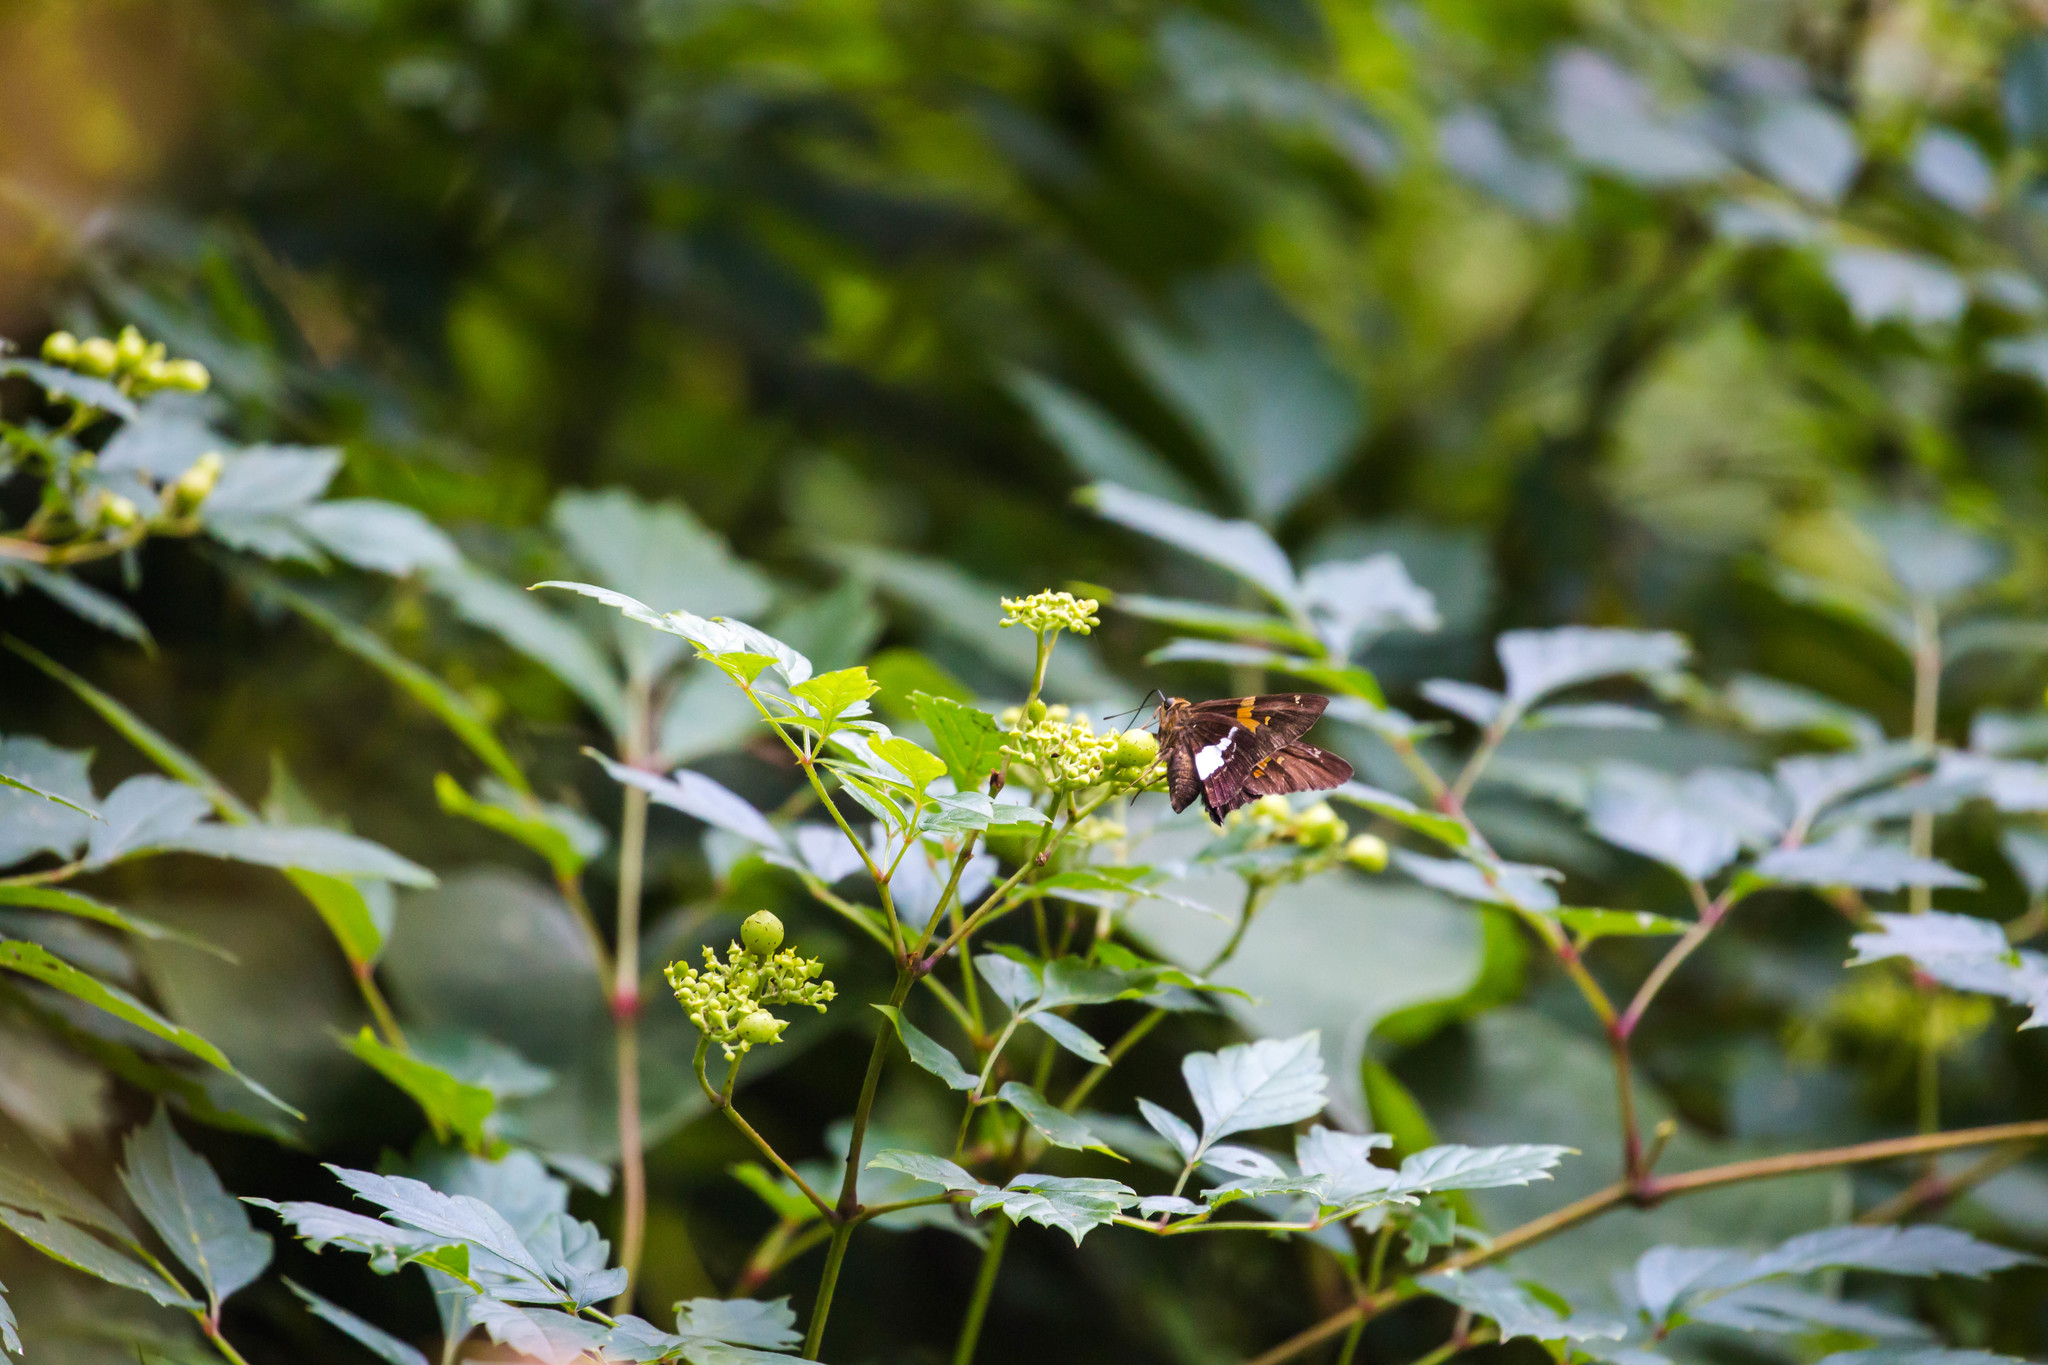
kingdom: Animalia
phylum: Arthropoda
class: Insecta
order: Lepidoptera
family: Hesperiidae
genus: Epargyreus
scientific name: Epargyreus clarus
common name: Silver-spotted skipper
